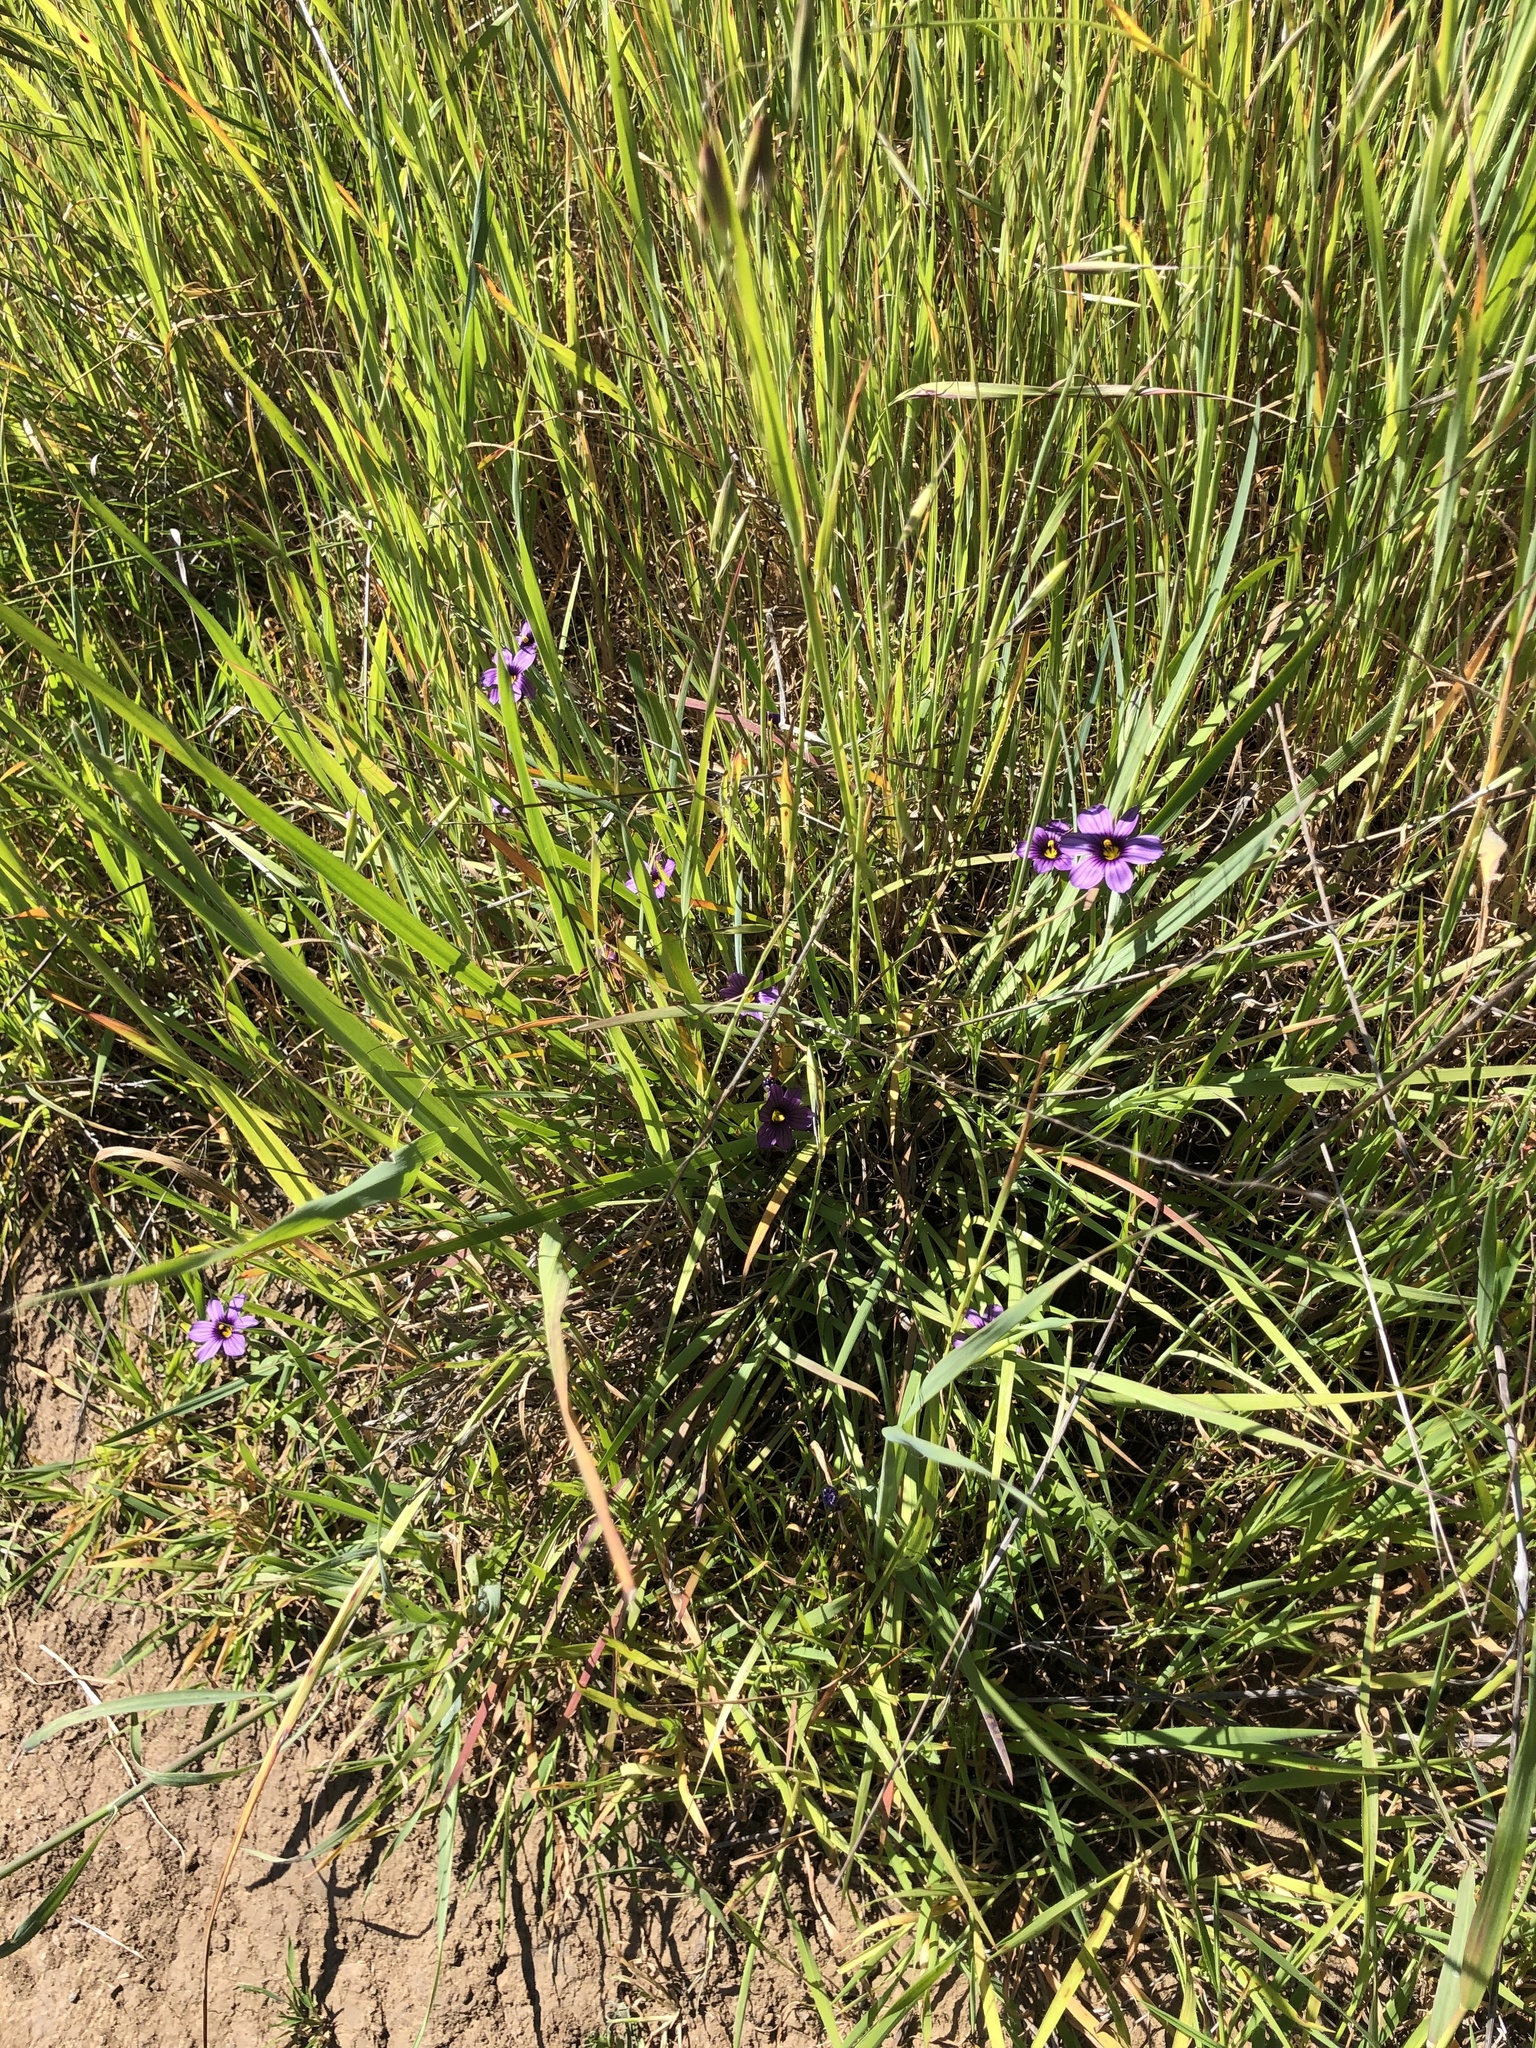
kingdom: Plantae
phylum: Tracheophyta
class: Liliopsida
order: Asparagales
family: Iridaceae
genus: Sisyrinchium
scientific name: Sisyrinchium bellum
